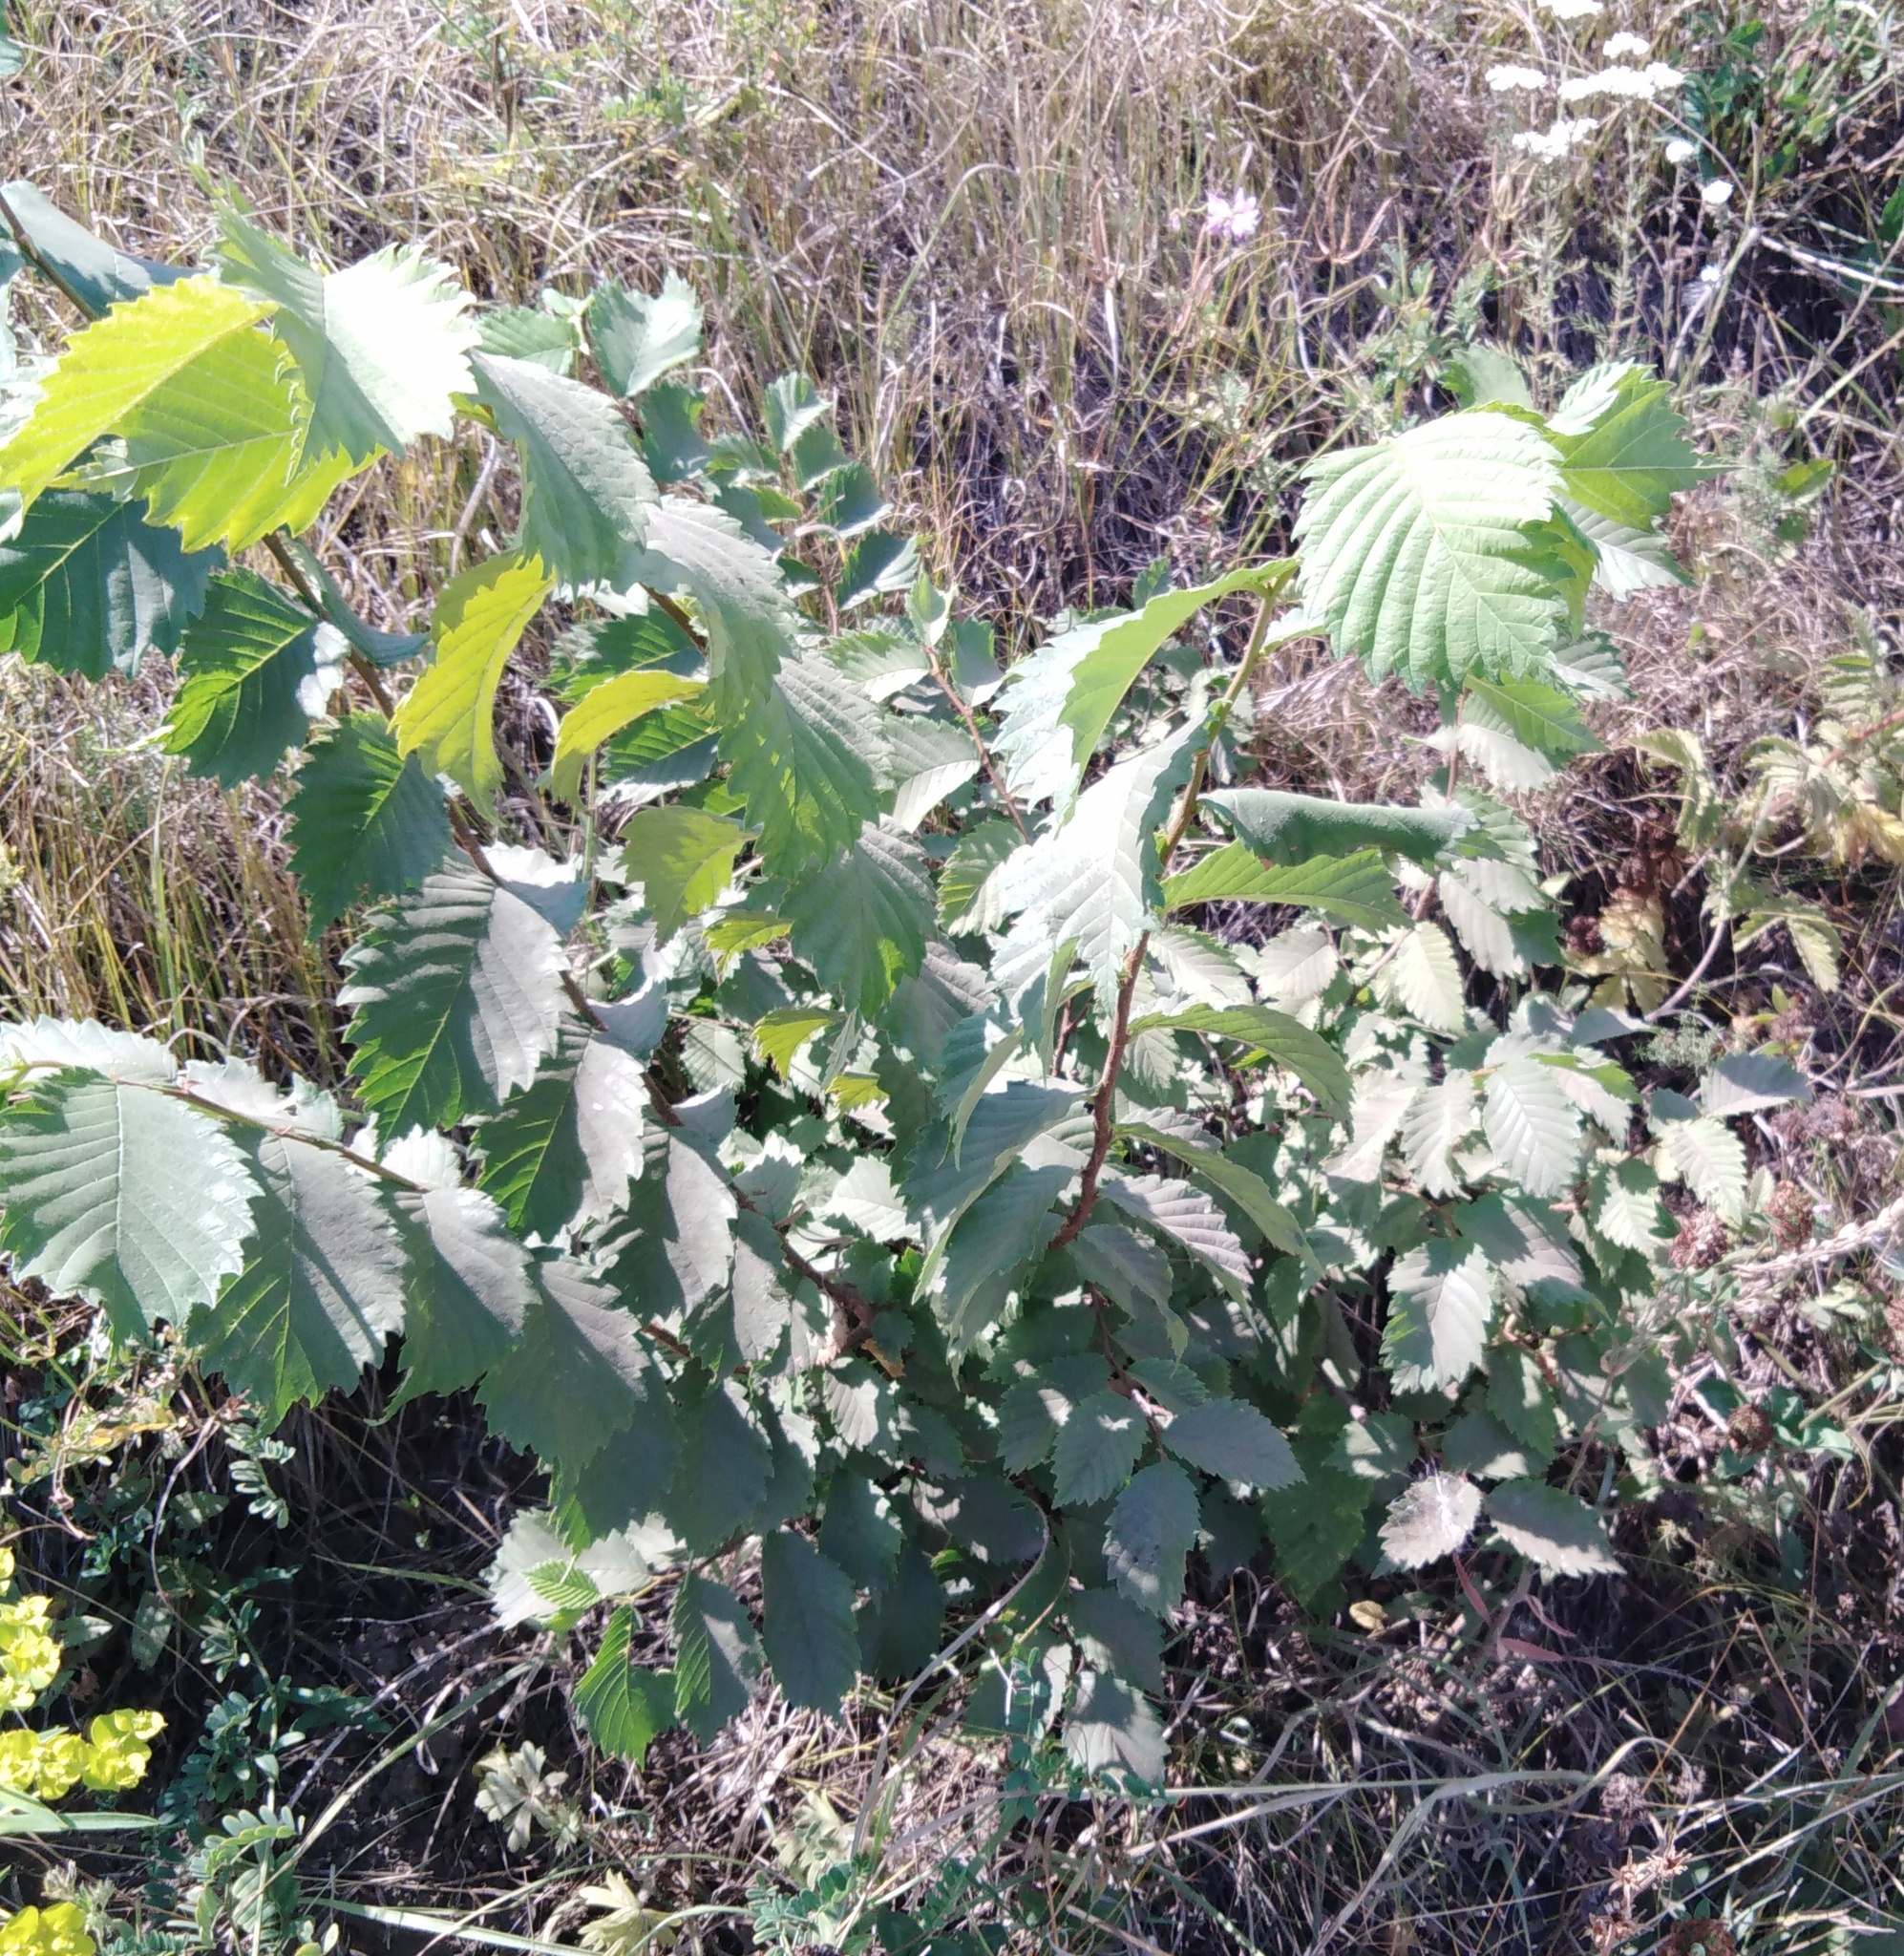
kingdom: Plantae
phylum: Tracheophyta
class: Magnoliopsida
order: Rosales
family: Ulmaceae
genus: Ulmus
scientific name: Ulmus laevis
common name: European white-elm
